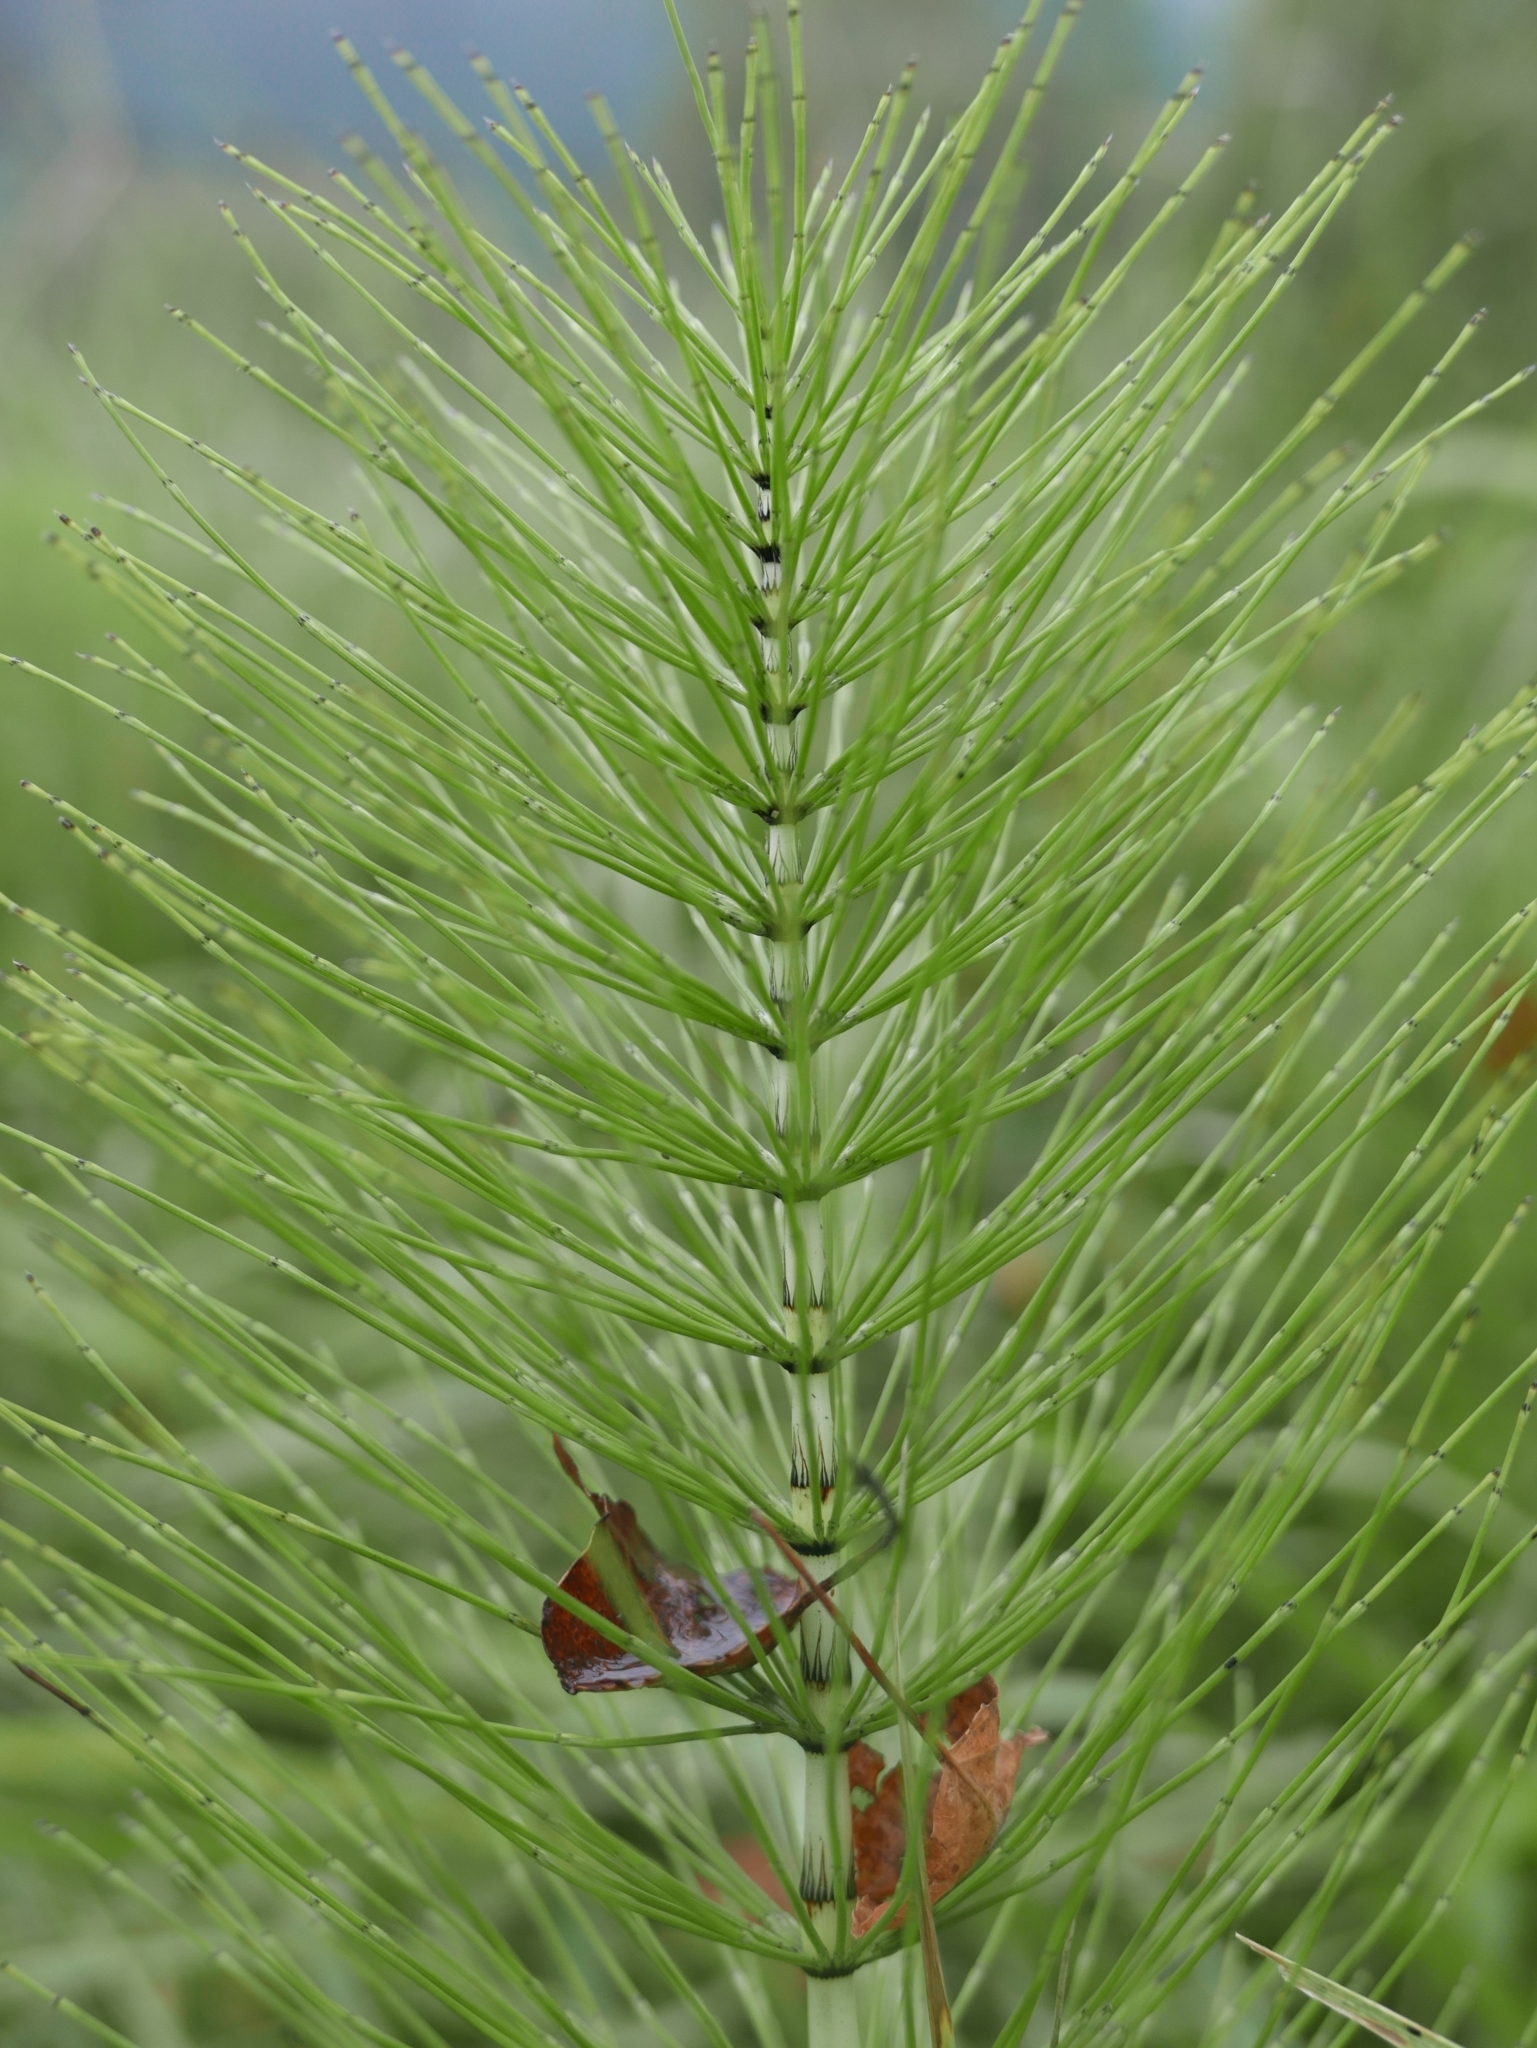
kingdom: Plantae
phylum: Tracheophyta
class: Polypodiopsida
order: Equisetales
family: Equisetaceae
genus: Equisetum
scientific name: Equisetum telmateia
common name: Great horsetail
